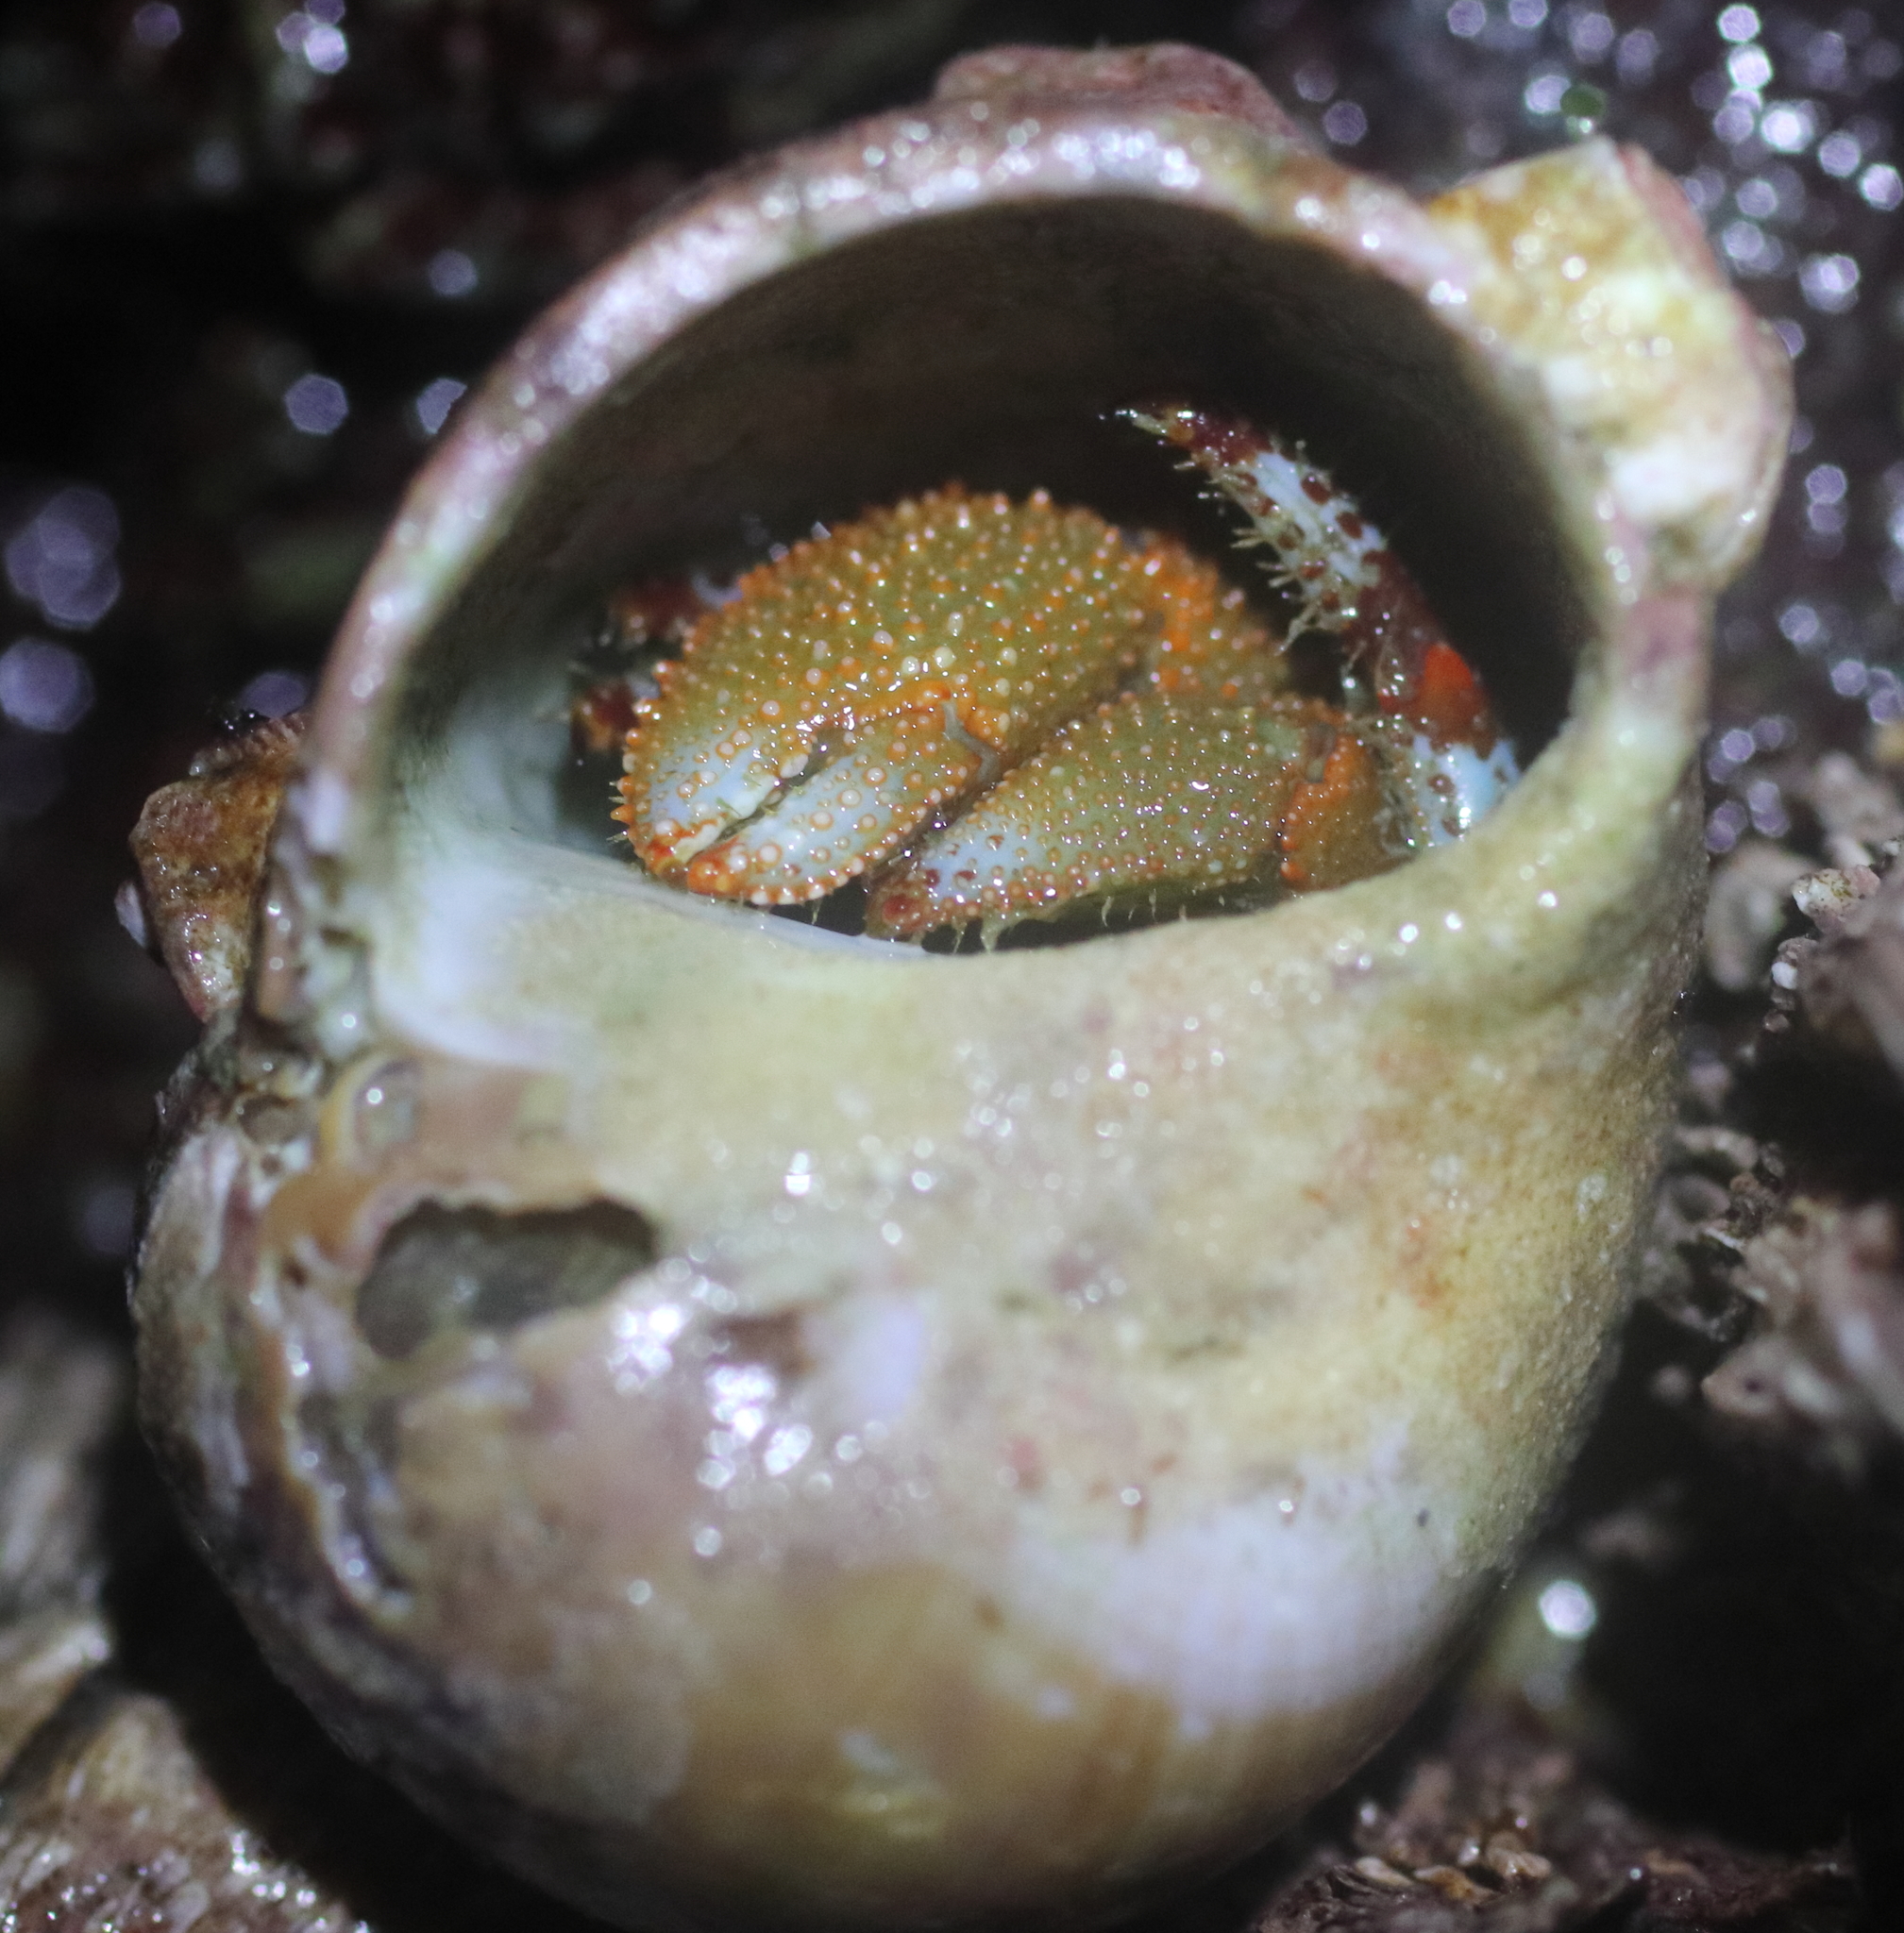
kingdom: Animalia
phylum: Arthropoda
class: Malacostraca
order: Decapoda
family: Paguridae
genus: Pagurus
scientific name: Pagurus beringanus
